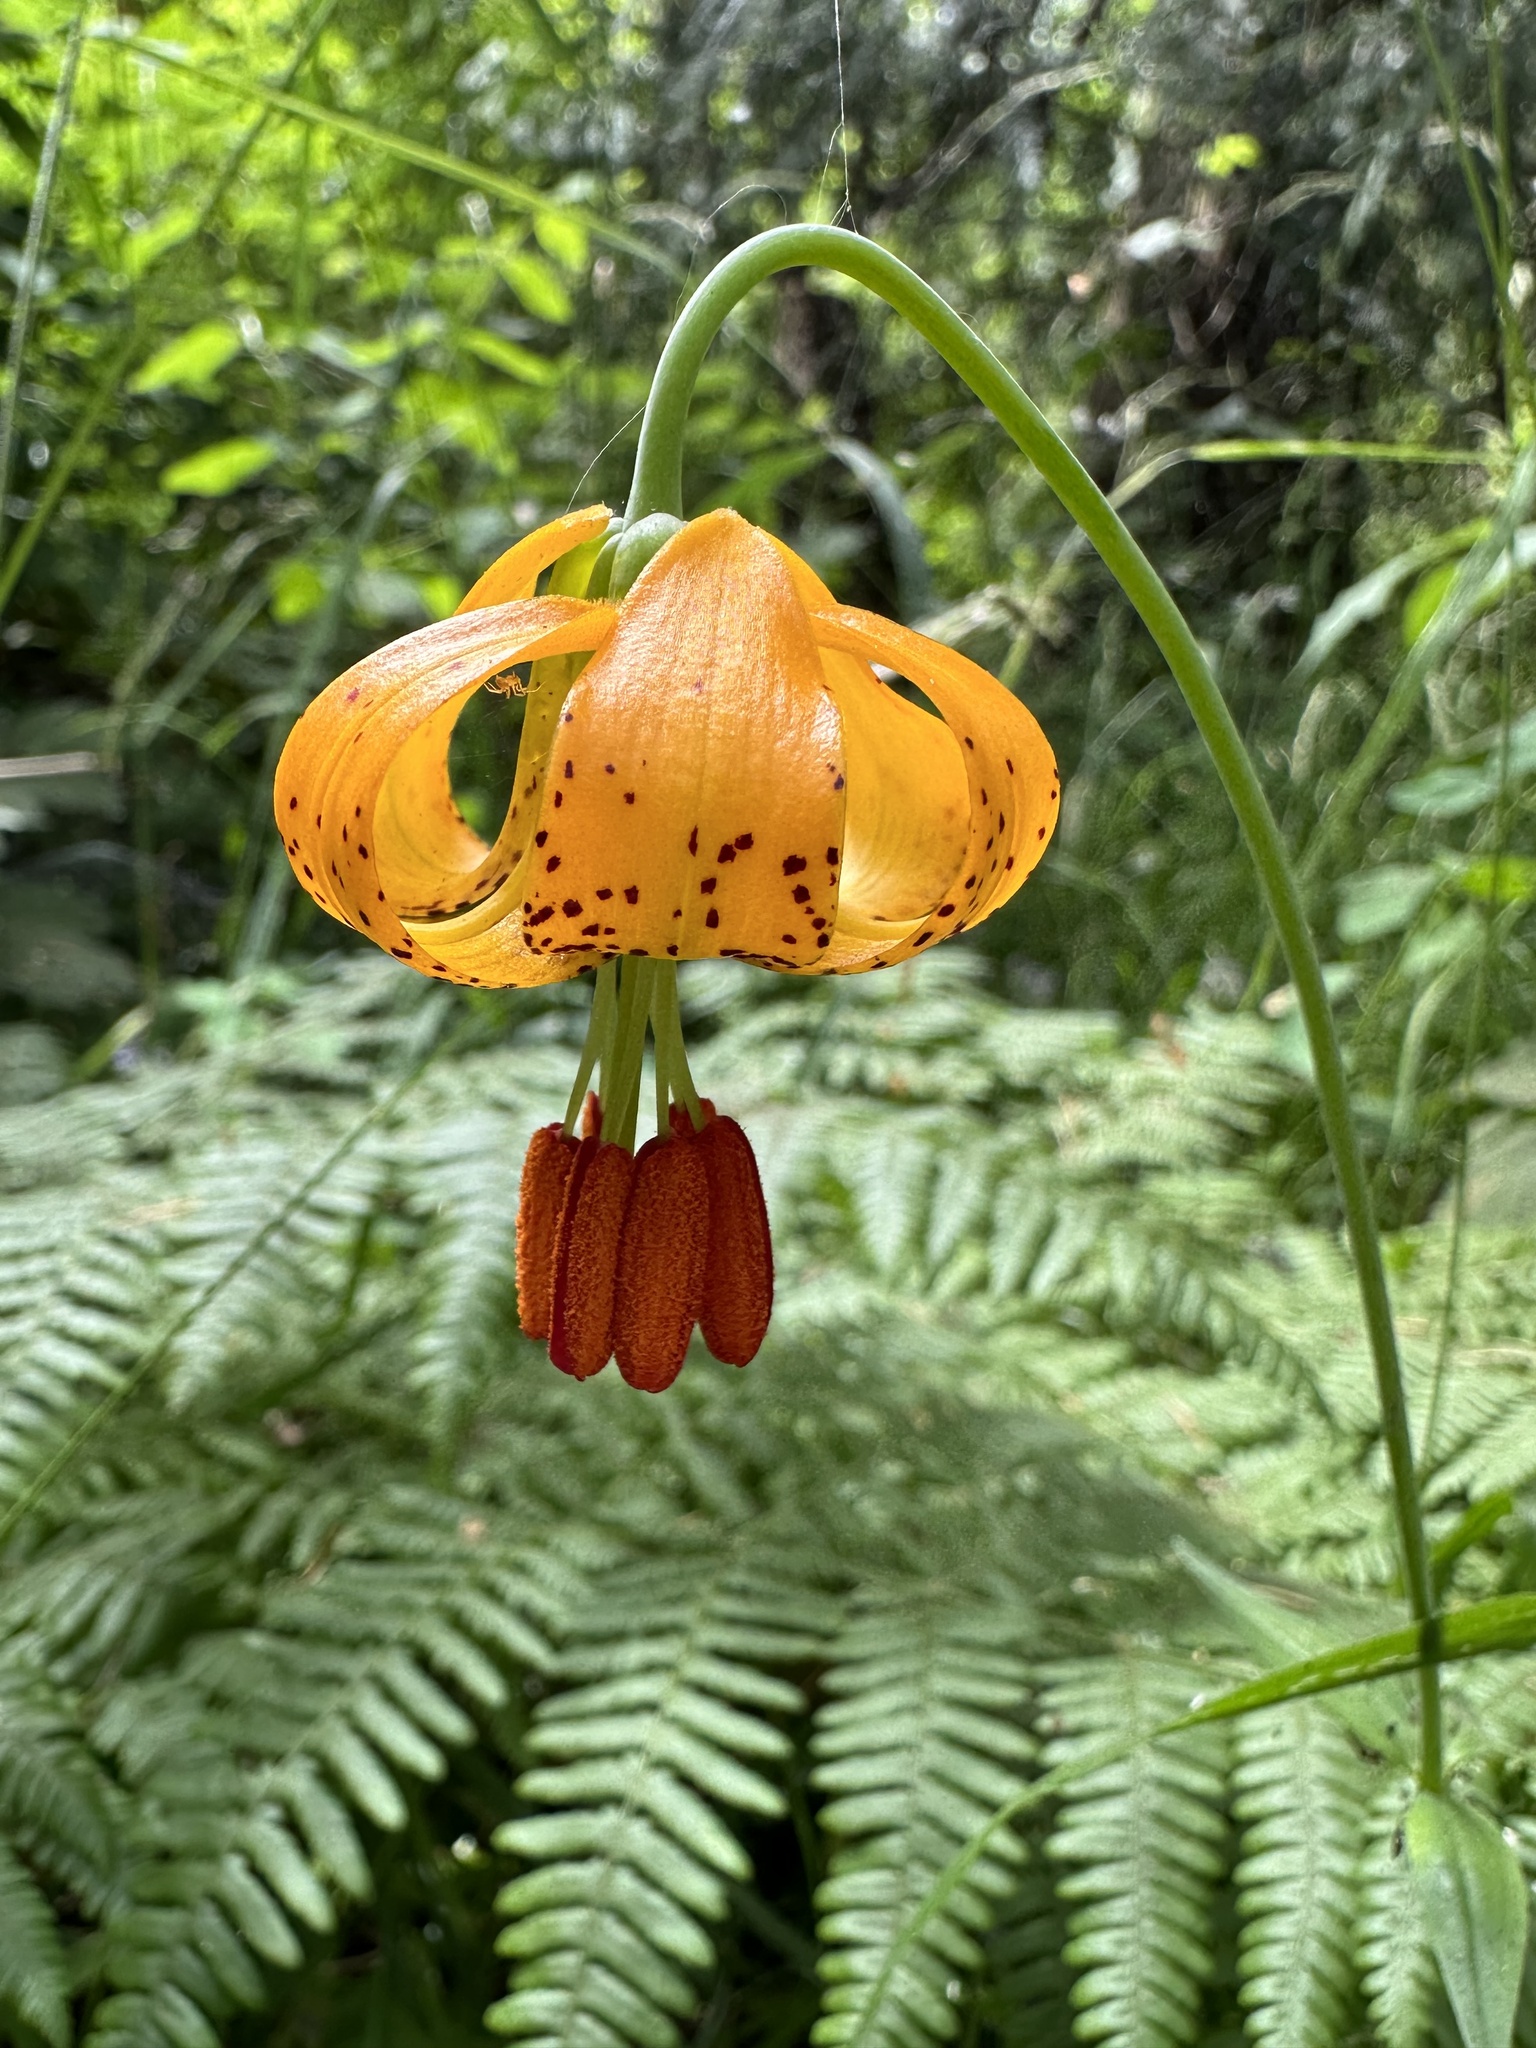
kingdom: Plantae
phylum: Tracheophyta
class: Liliopsida
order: Liliales
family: Liliaceae
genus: Lilium
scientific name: Lilium columbianum
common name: Columbia lily
